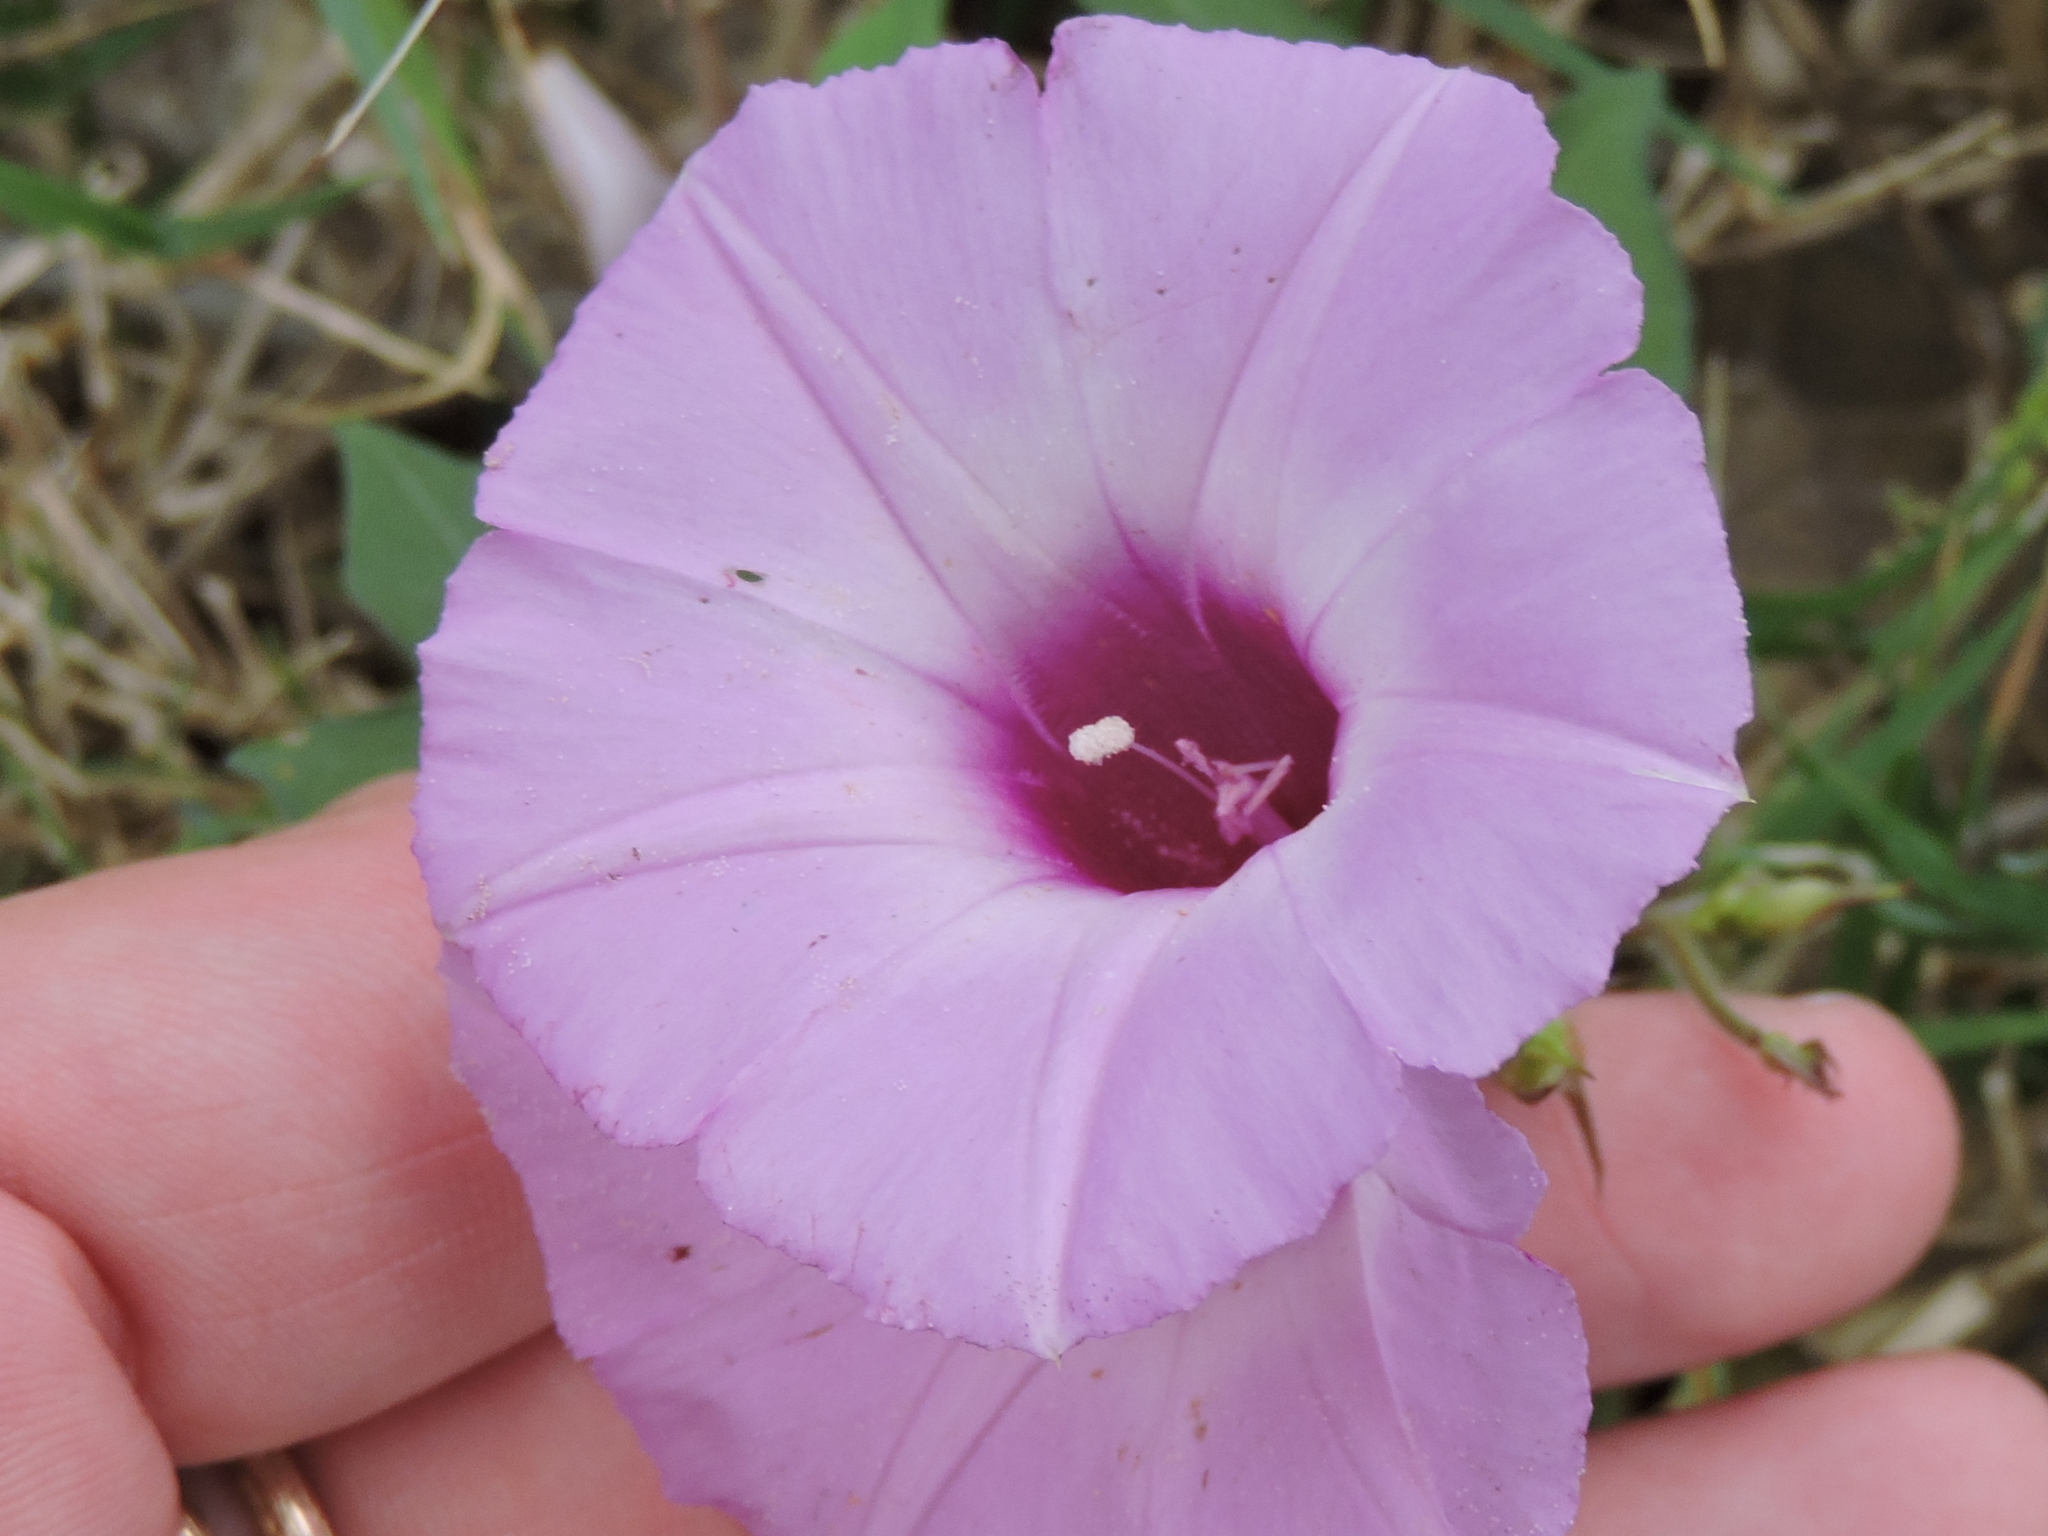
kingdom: Plantae
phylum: Tracheophyta
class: Magnoliopsida
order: Solanales
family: Convolvulaceae
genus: Ipomoea
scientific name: Ipomoea cordatotriloba
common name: Cotton morning glory
